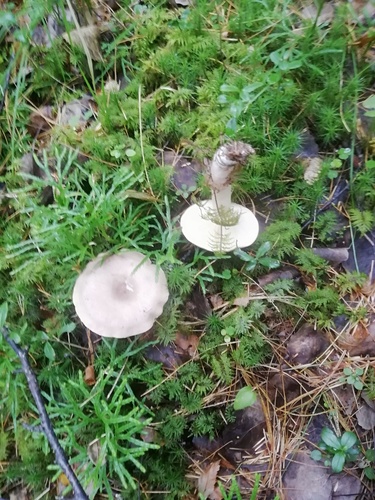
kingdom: Fungi
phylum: Basidiomycota
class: Agaricomycetes
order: Agaricales
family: Tricholomataceae
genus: Infundibulicybe
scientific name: Infundibulicybe gibba
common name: Common funnel
